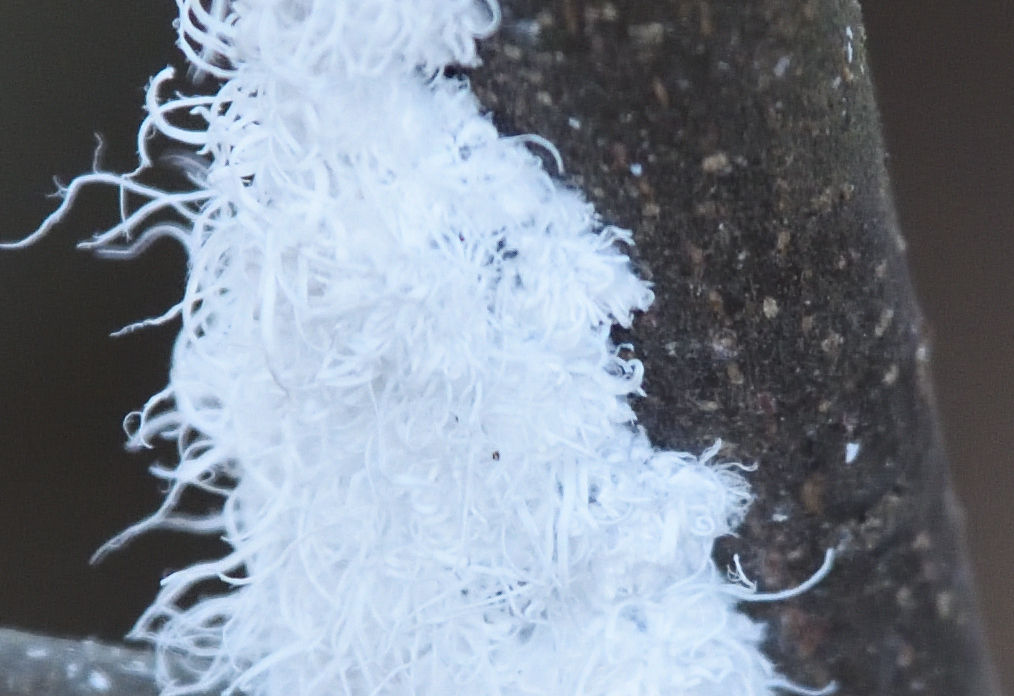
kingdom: Animalia
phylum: Arthropoda
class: Insecta
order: Hemiptera
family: Aphididae
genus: Prociphilus
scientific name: Prociphilus tessellatus
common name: Woolly alder aphid
